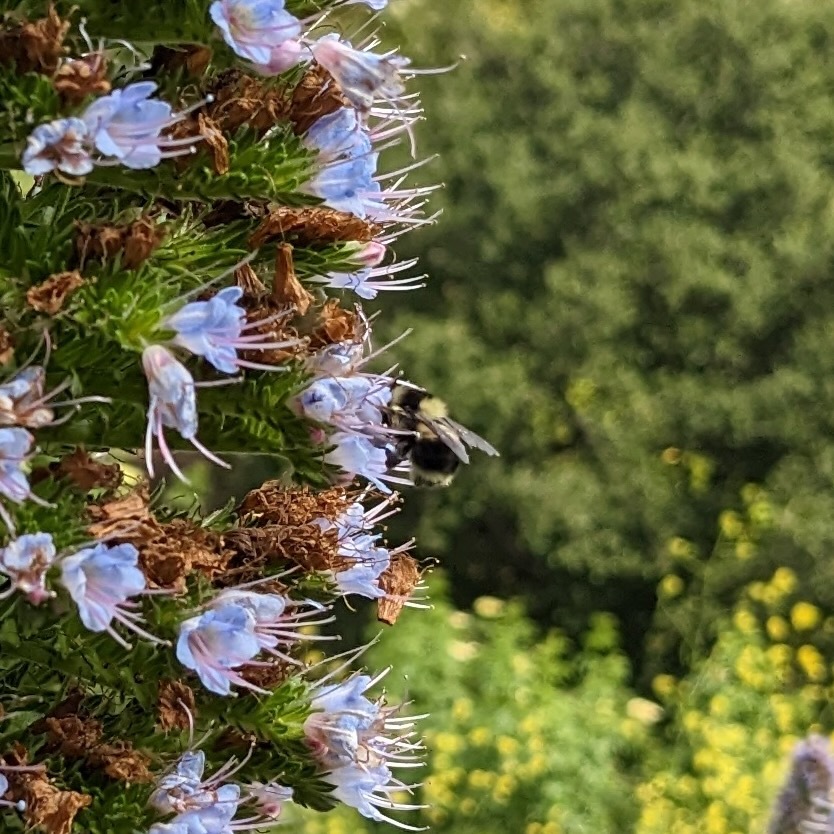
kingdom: Animalia
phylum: Arthropoda
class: Insecta
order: Hymenoptera
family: Apidae
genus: Bombus
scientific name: Bombus melanopygus
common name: Black tail bumble bee
